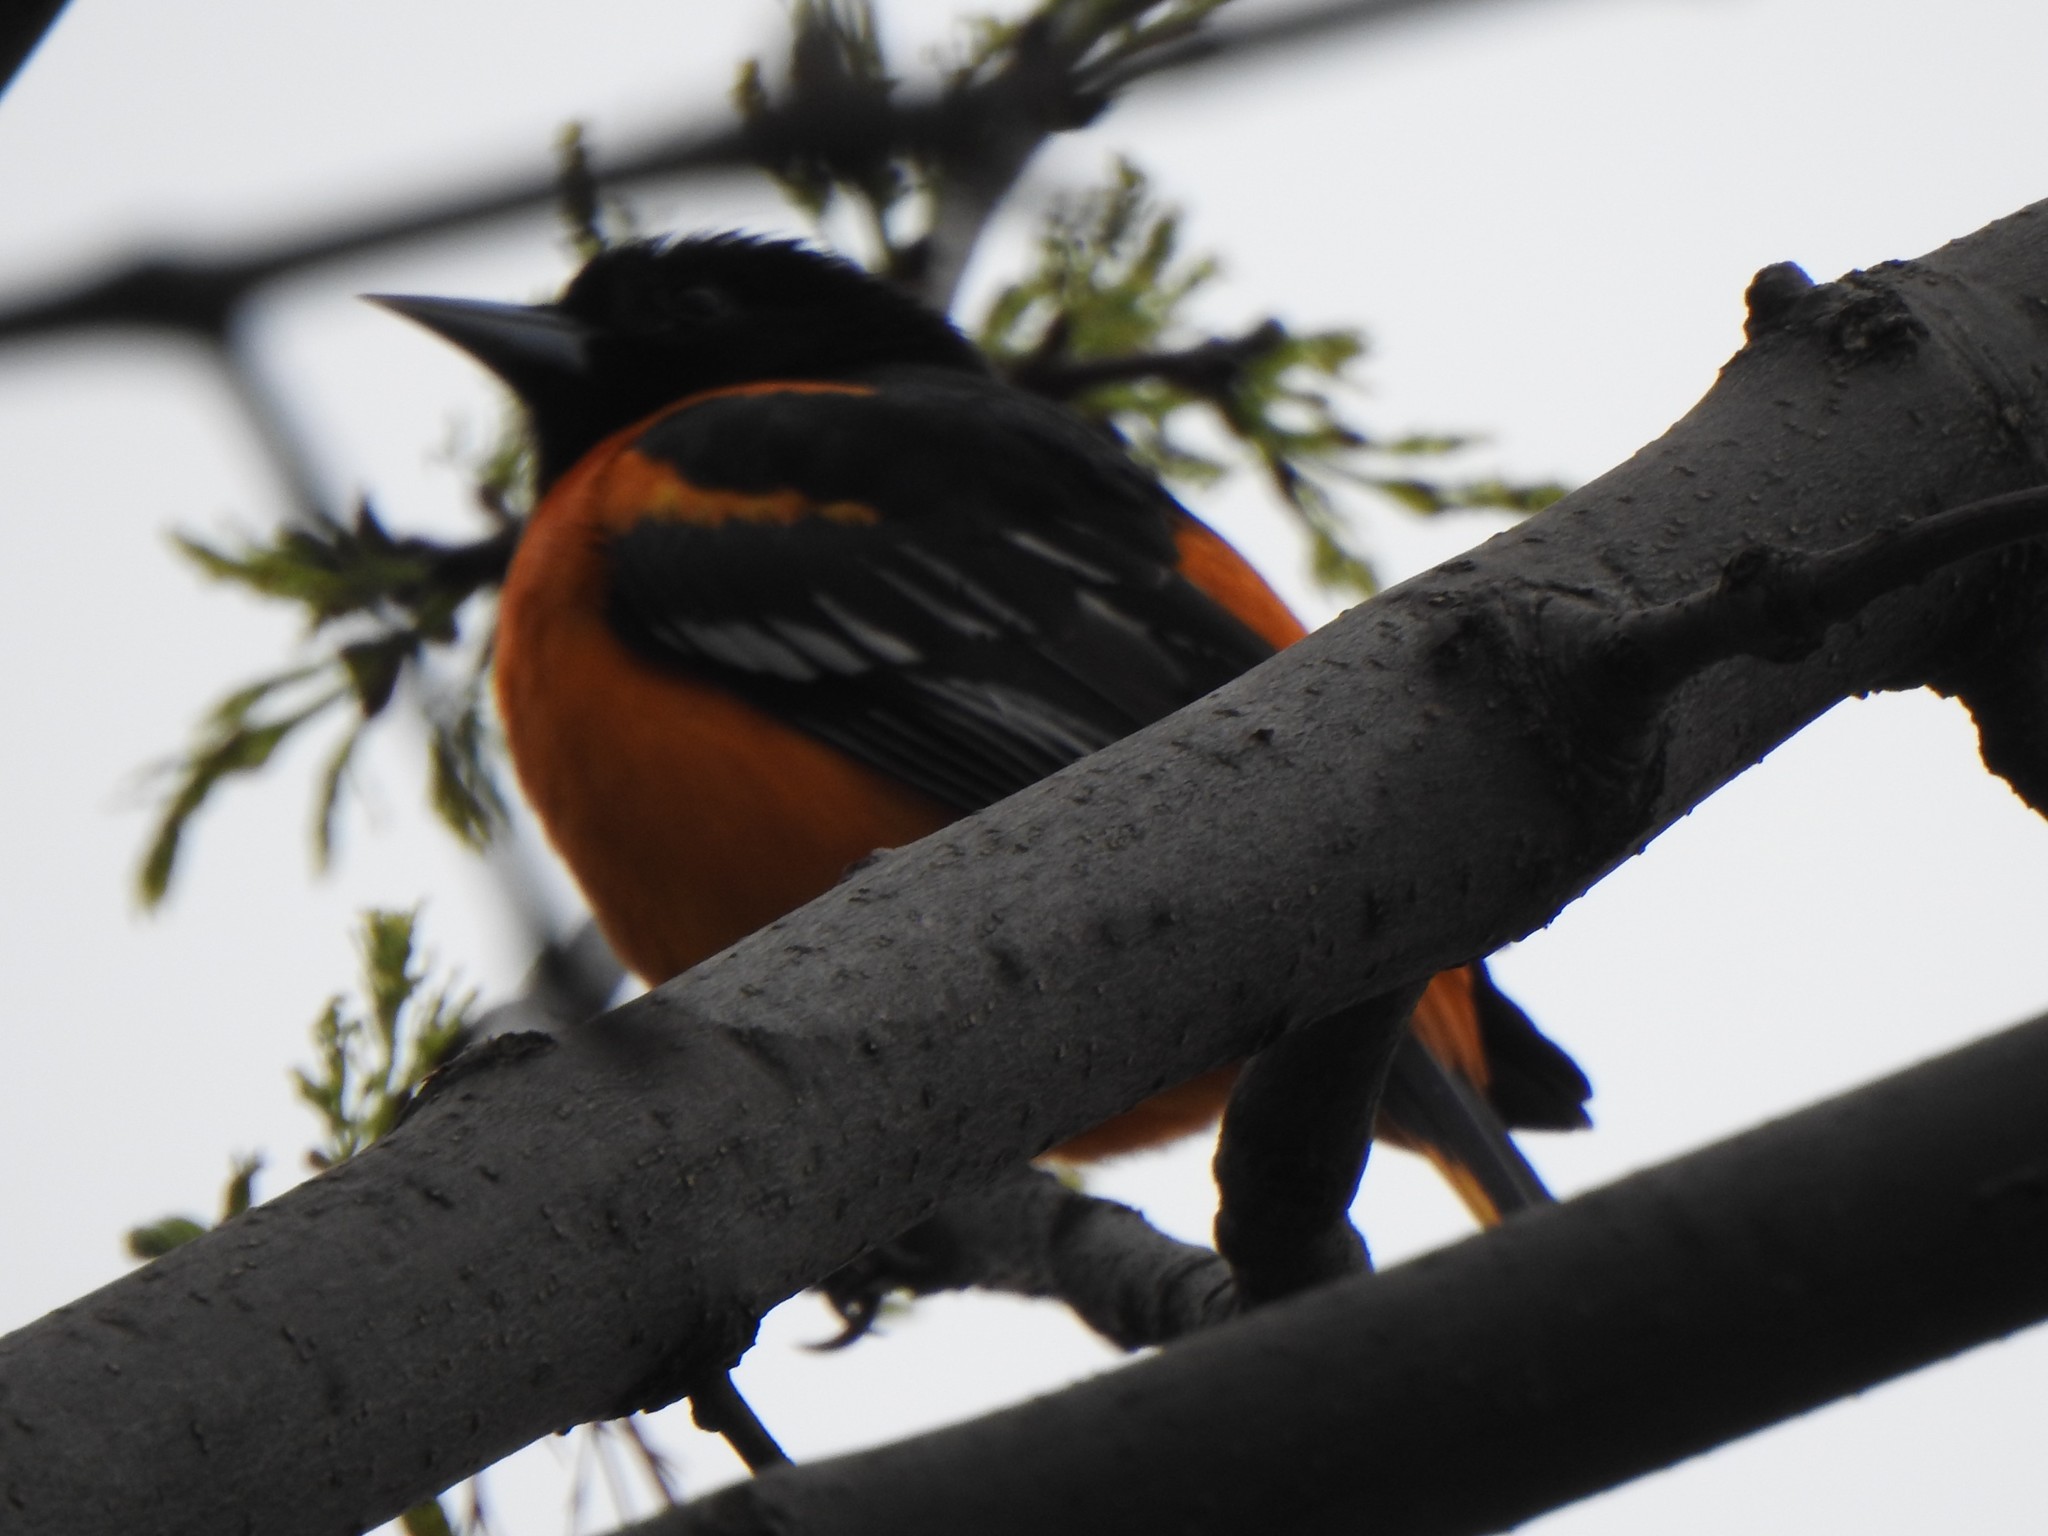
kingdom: Animalia
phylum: Chordata
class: Aves
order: Passeriformes
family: Icteridae
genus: Icterus
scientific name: Icterus galbula
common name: Baltimore oriole
